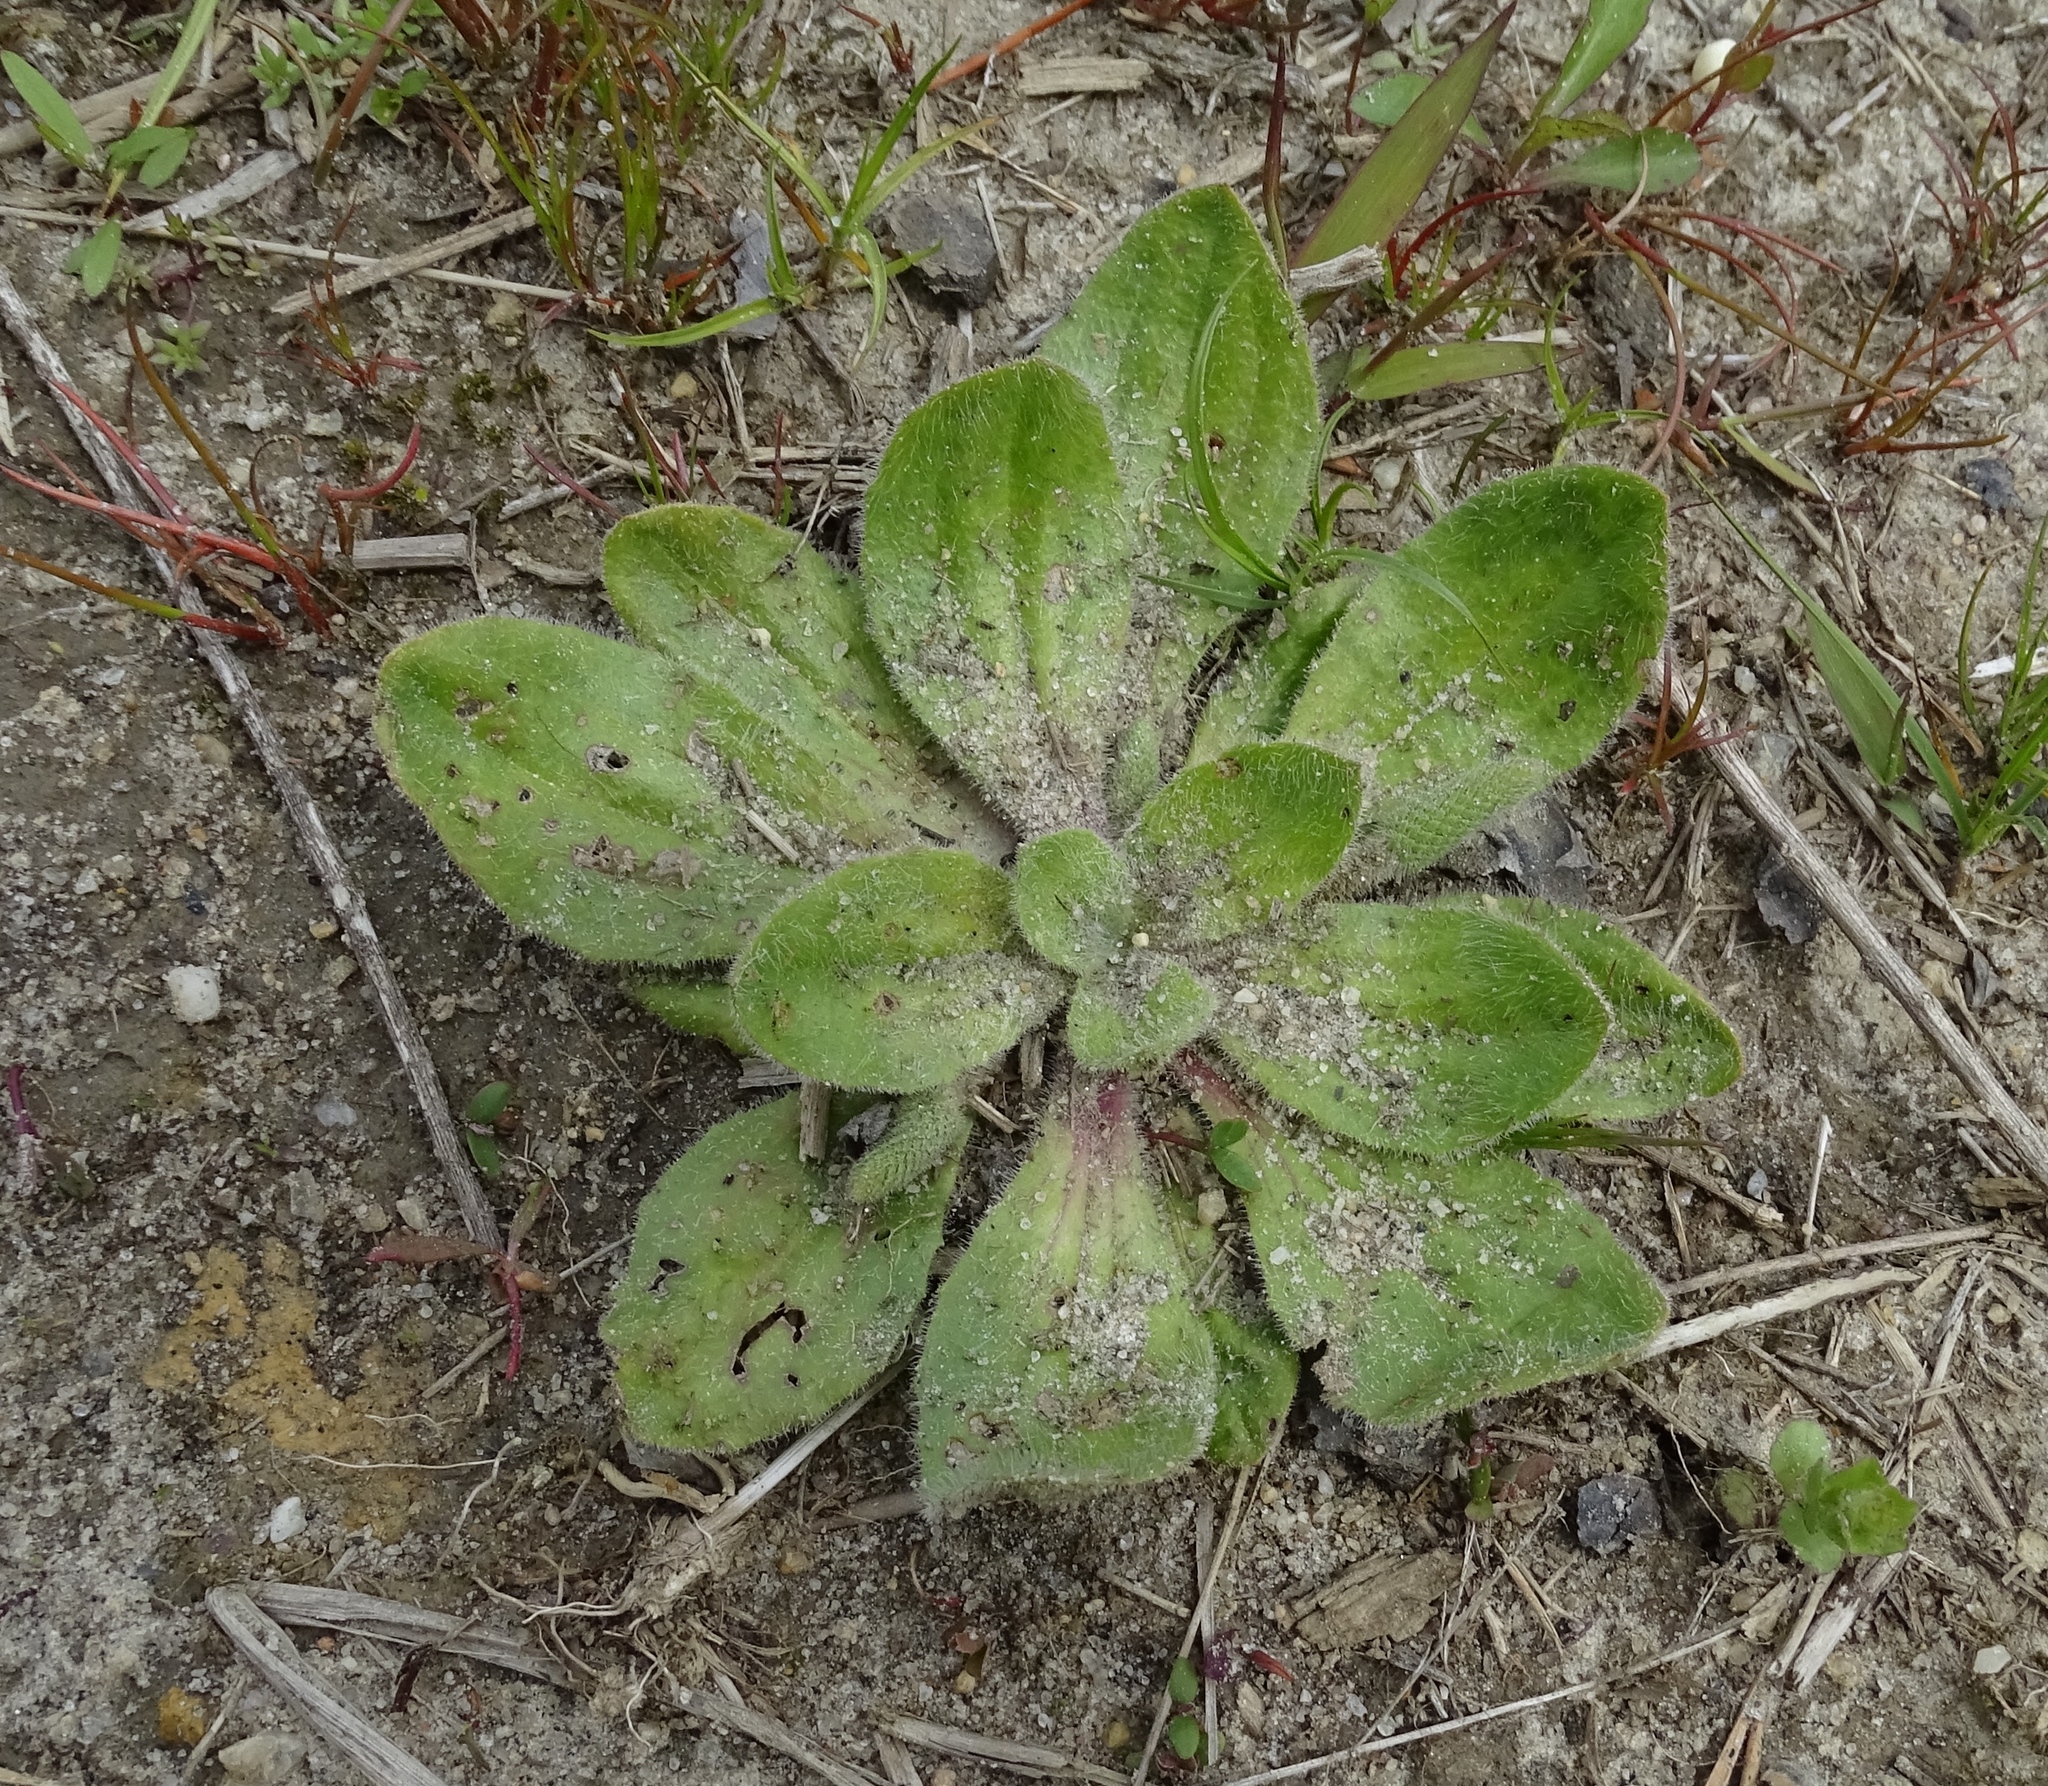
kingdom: Plantae
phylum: Tracheophyta
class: Magnoliopsida
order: Lamiales
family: Plantaginaceae
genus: Plantago
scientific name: Plantago virginica
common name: Hoary plantain
